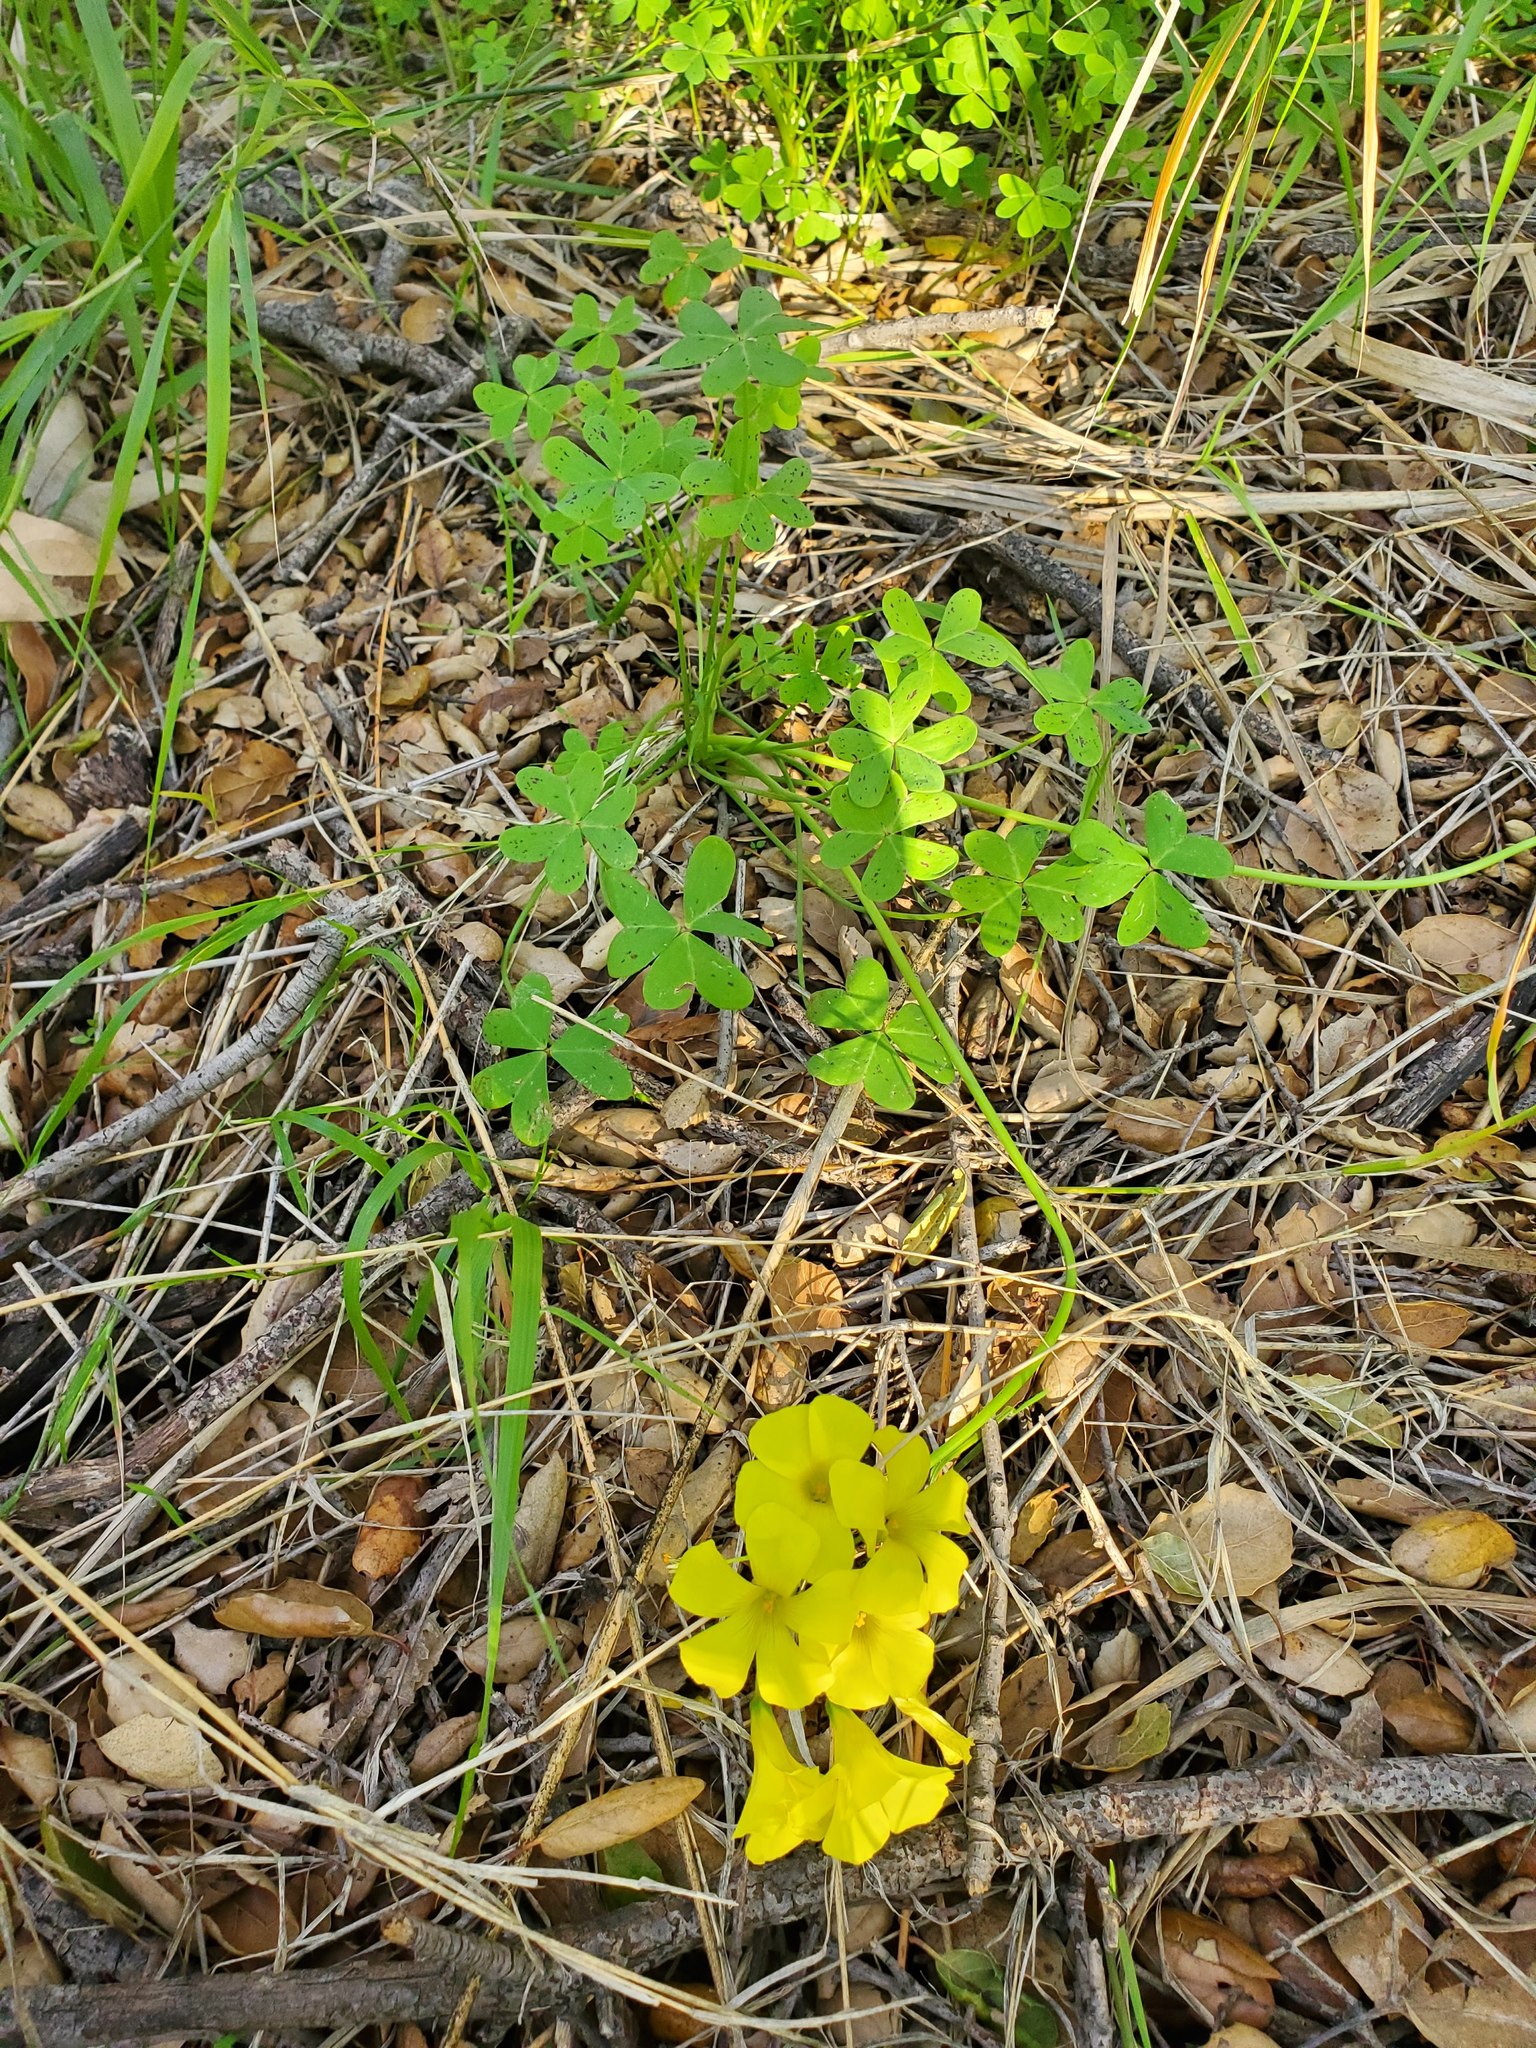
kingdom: Plantae
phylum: Tracheophyta
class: Magnoliopsida
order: Oxalidales
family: Oxalidaceae
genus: Oxalis
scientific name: Oxalis pes-caprae
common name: Bermuda-buttercup
